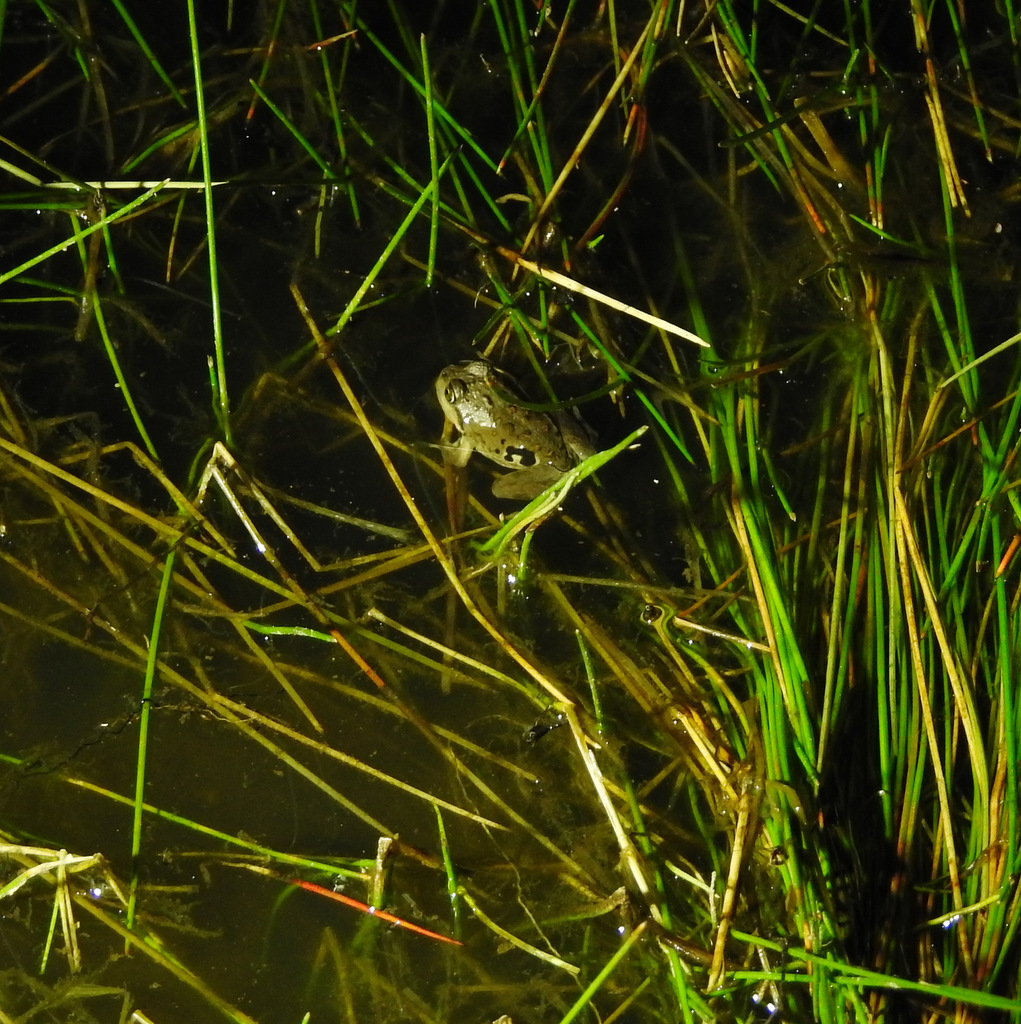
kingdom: Animalia
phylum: Chordata
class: Amphibia
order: Anura
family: Leptodactylidae
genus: Pleurodema
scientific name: Pleurodema bufoninum
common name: Large four-eyed frog
